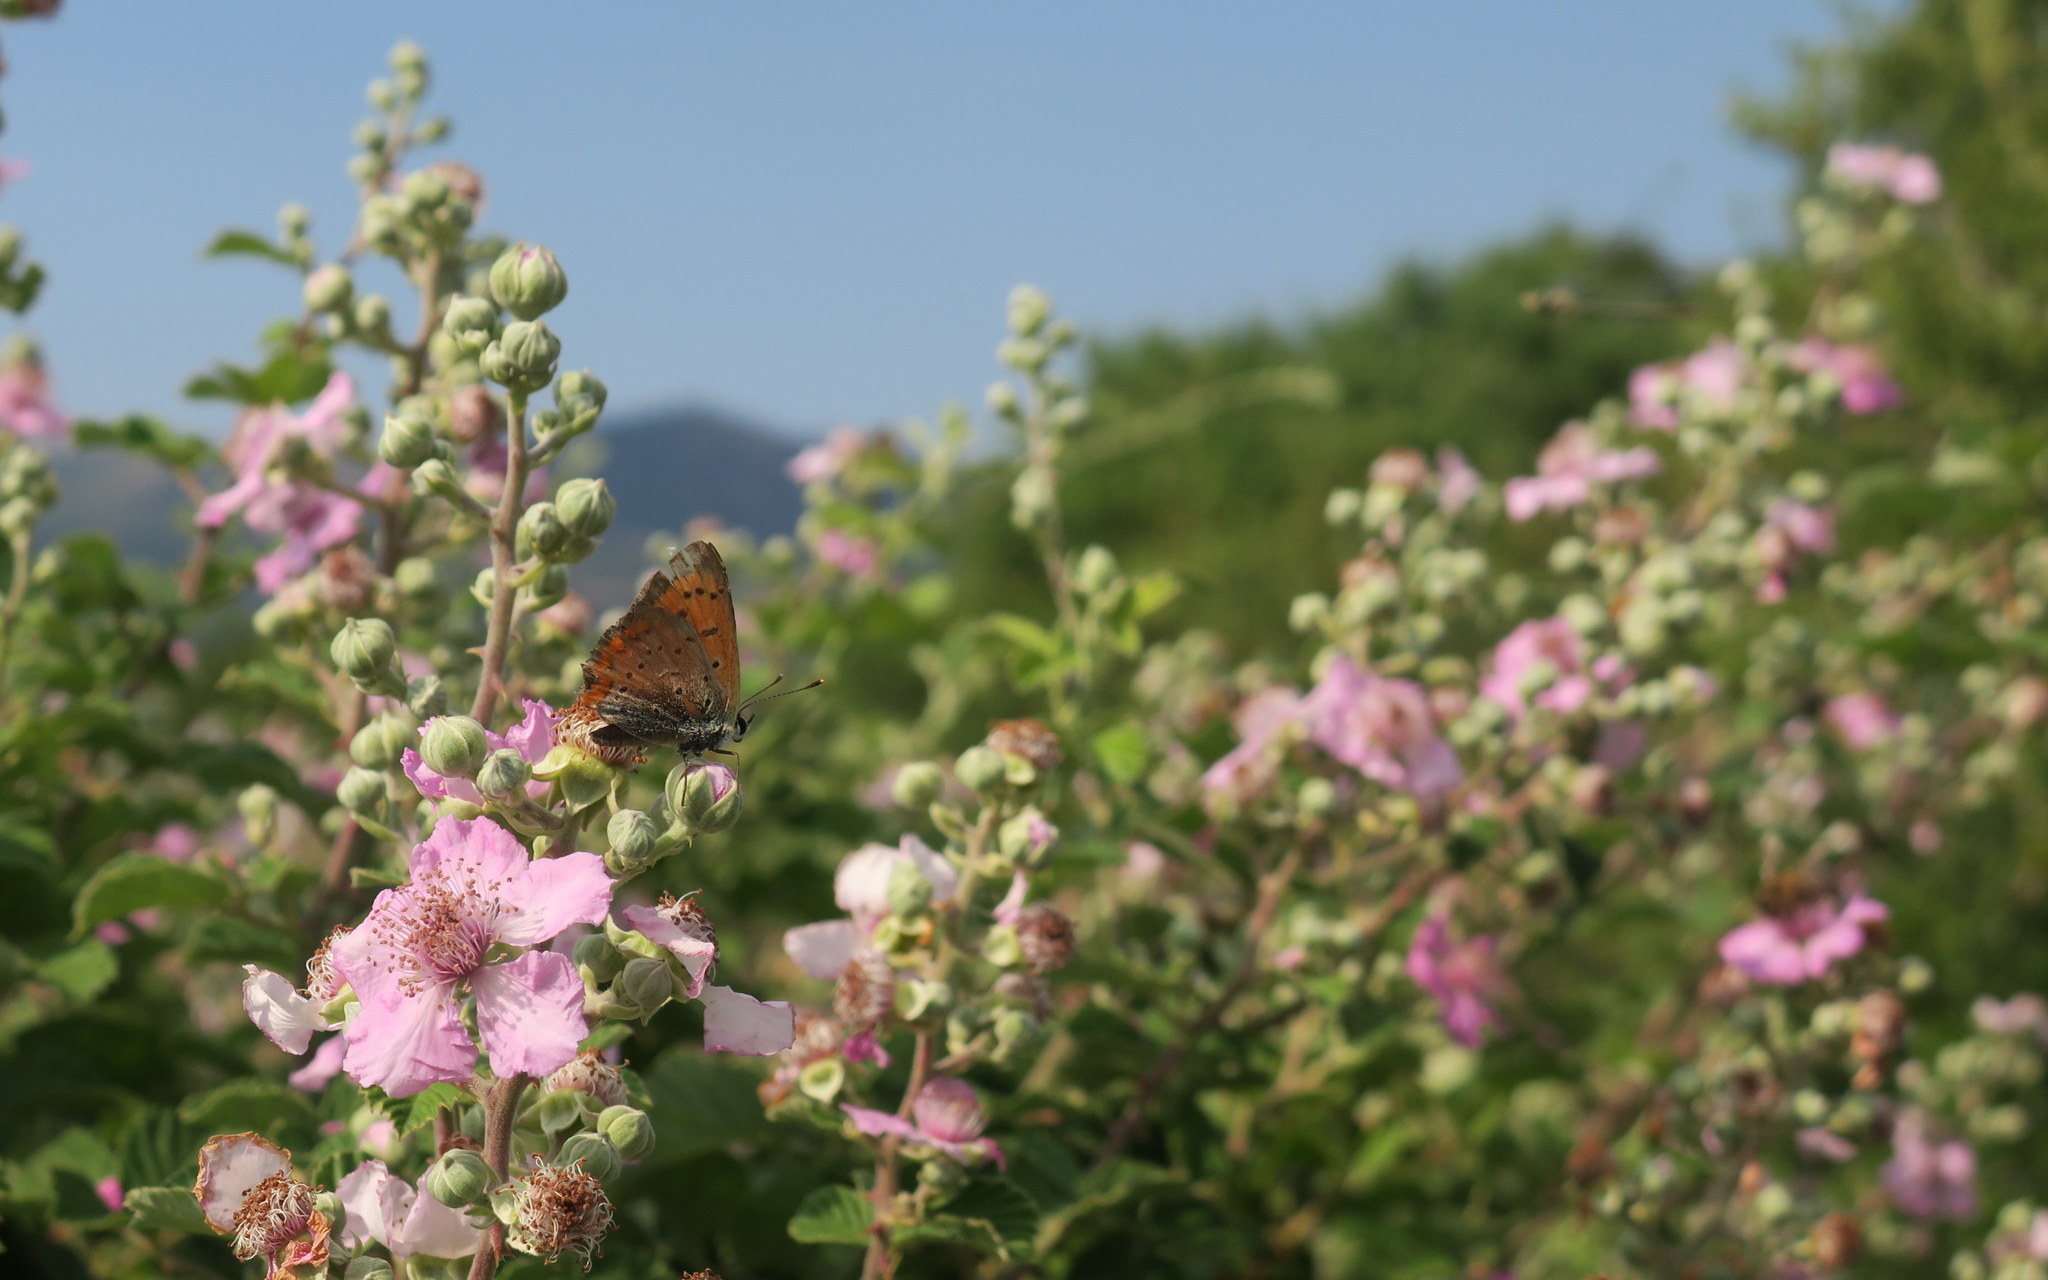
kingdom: Animalia
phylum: Arthropoda
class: Insecta
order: Lepidoptera
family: Lycaenidae
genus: Polyommatus
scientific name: Polyommatus ottomanus
